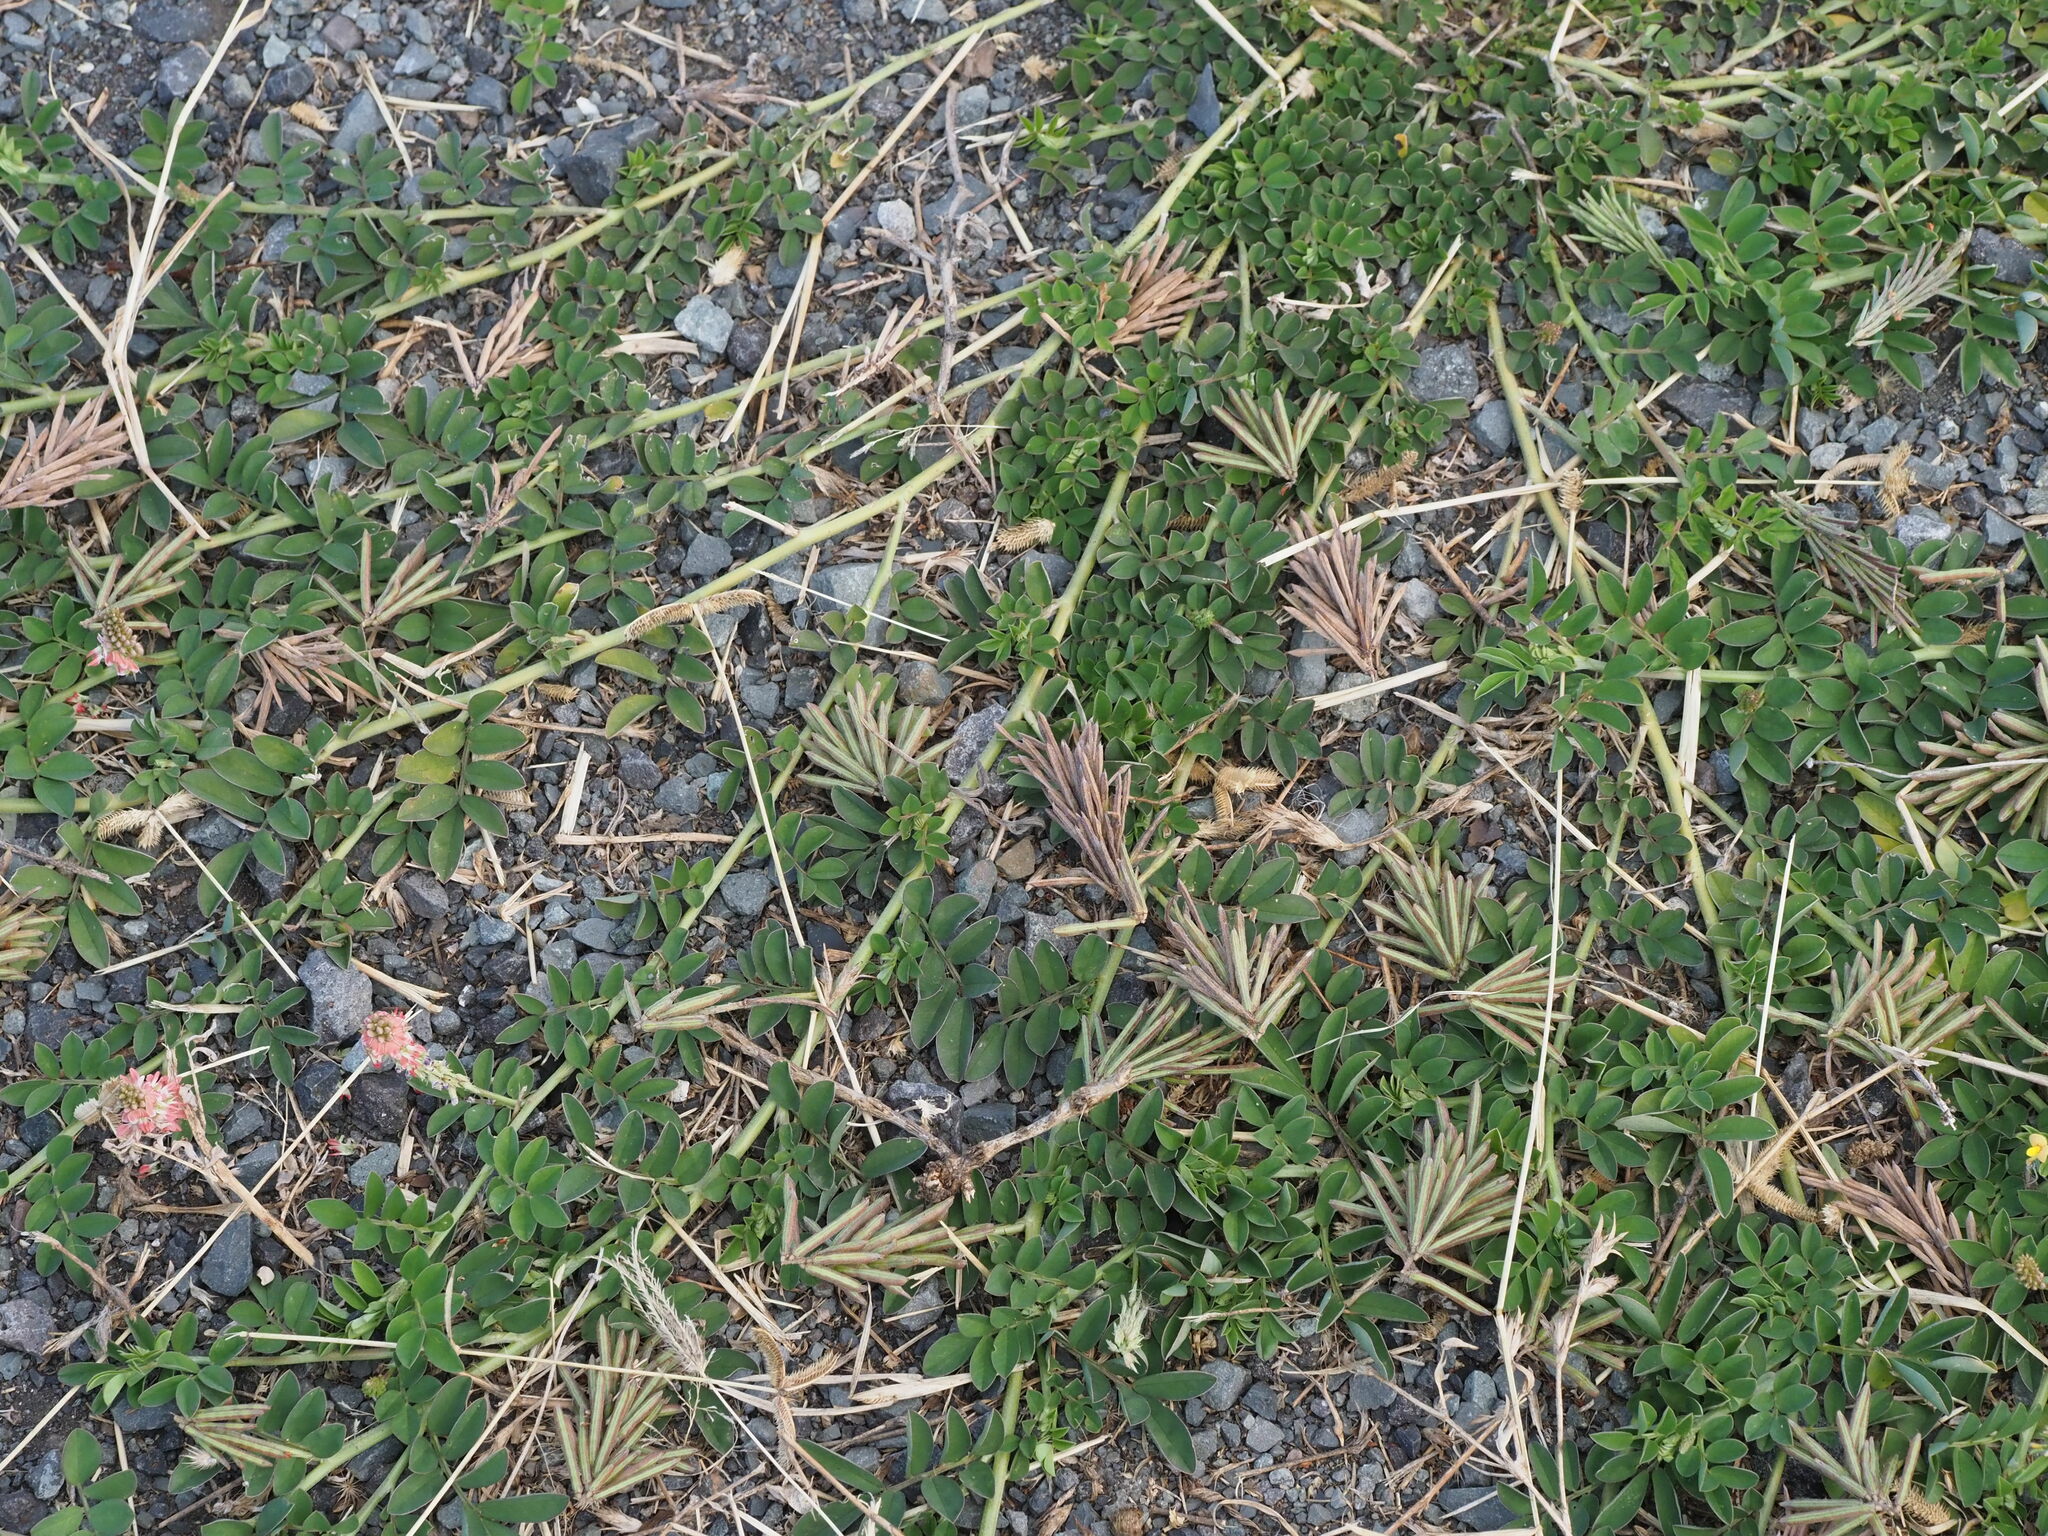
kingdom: Plantae
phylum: Tracheophyta
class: Magnoliopsida
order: Fabales
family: Fabaceae
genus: Indigofera
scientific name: Indigofera spicata
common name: Creeping indigo
